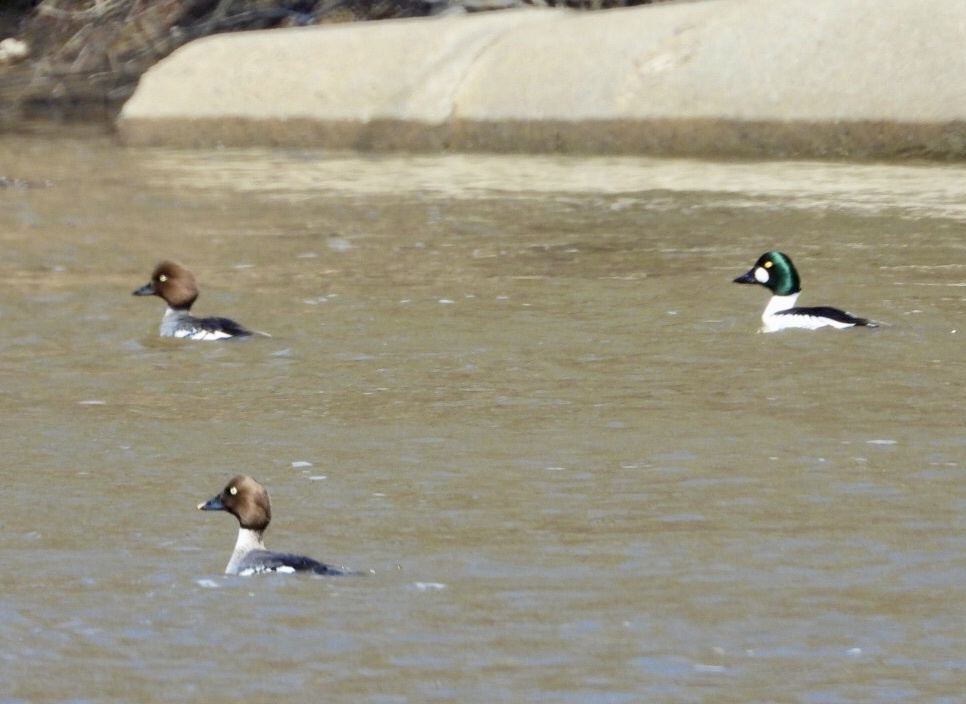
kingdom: Animalia
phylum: Chordata
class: Aves
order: Anseriformes
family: Anatidae
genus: Bucephala
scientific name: Bucephala clangula
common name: Common goldeneye
